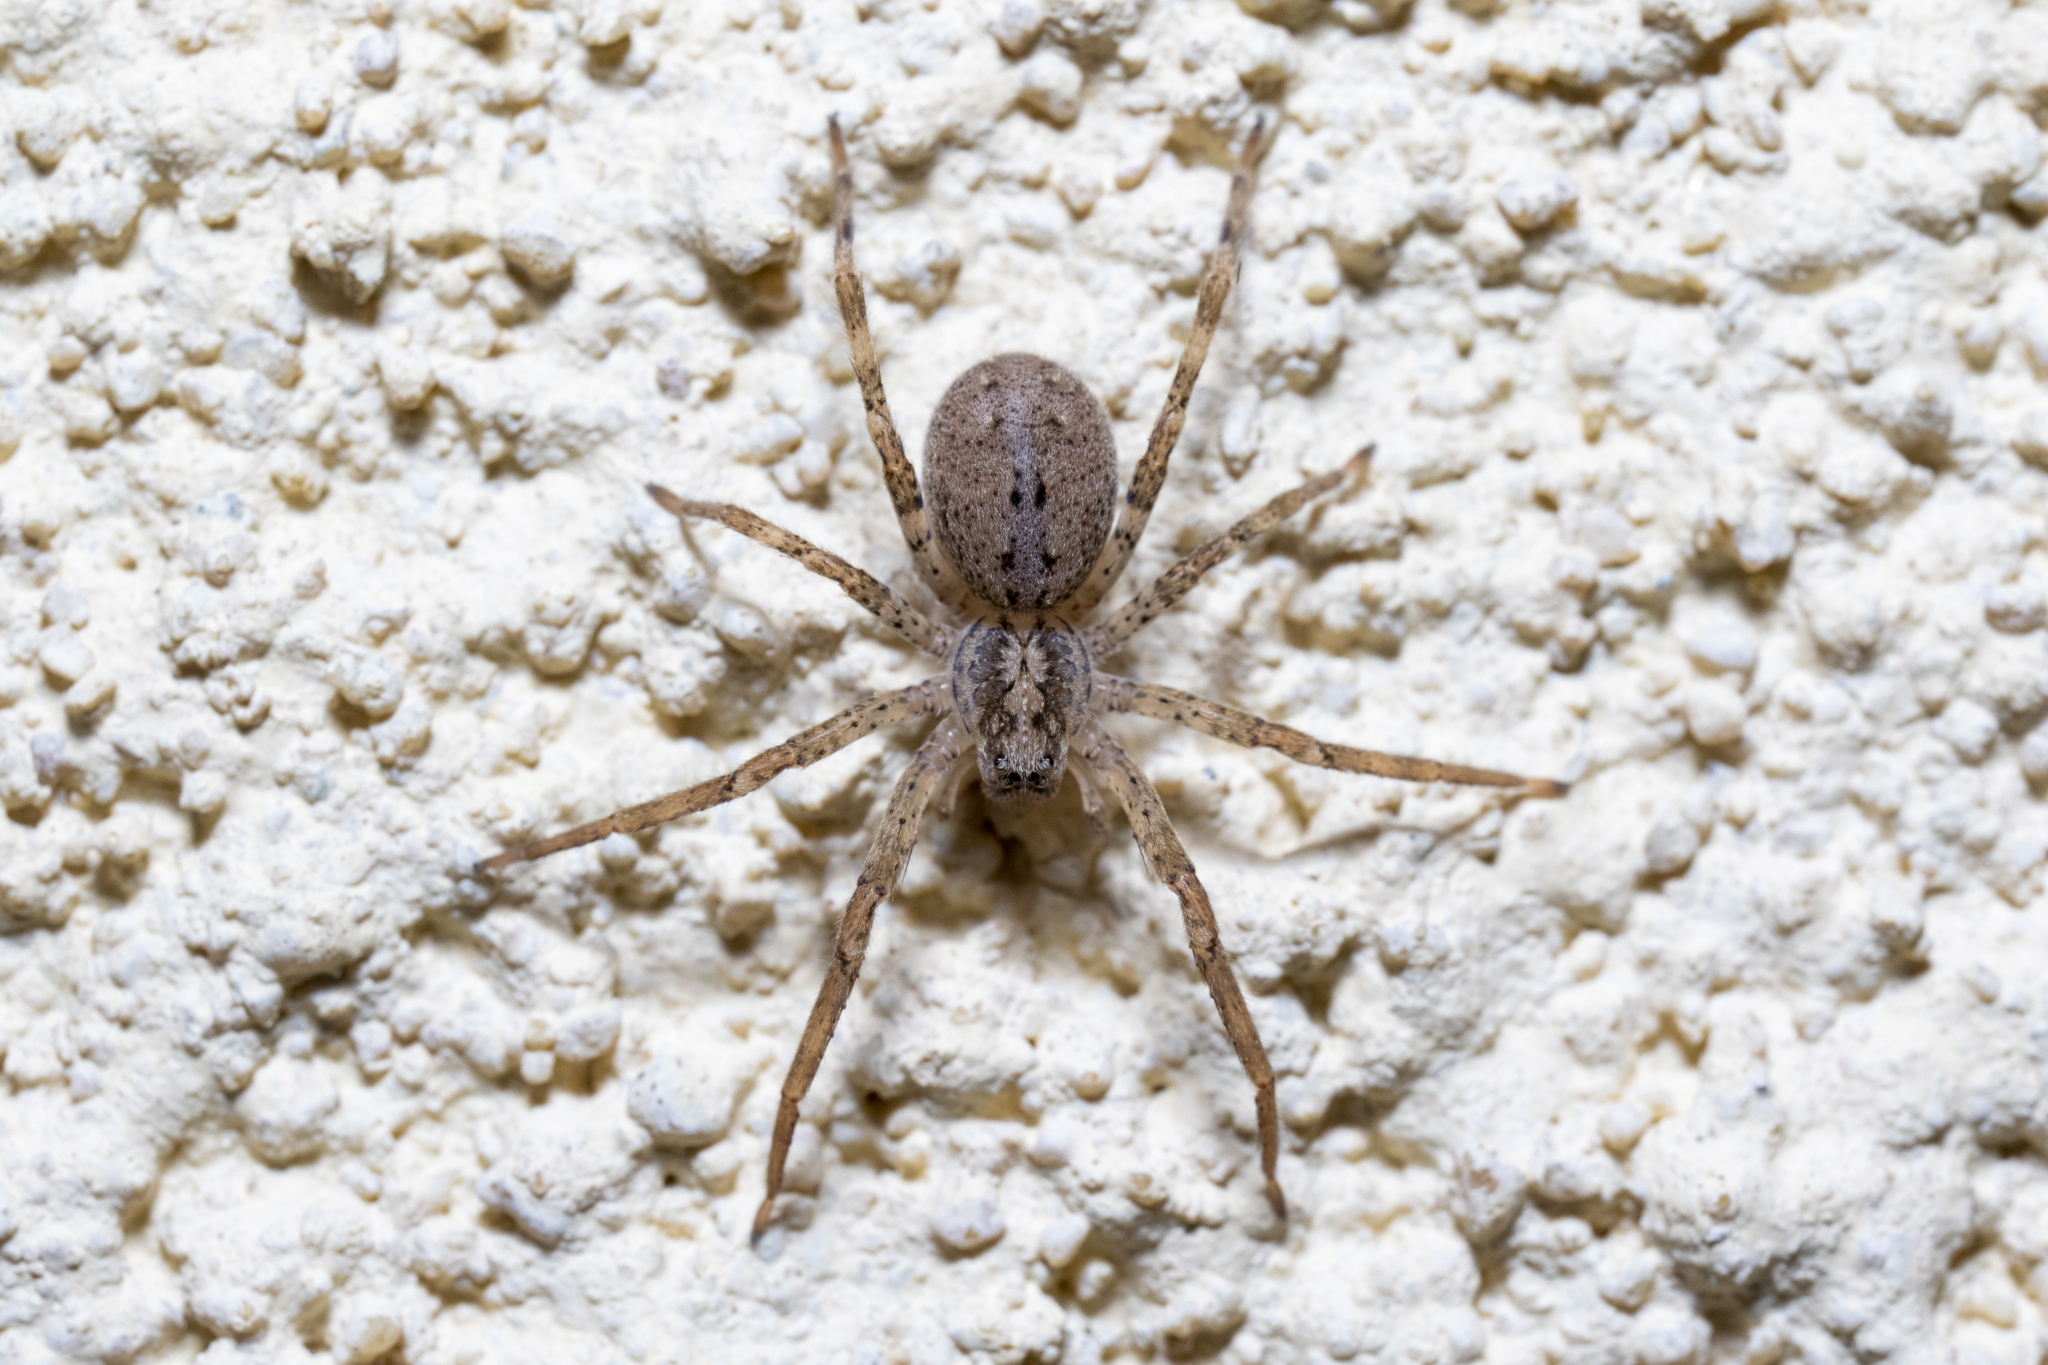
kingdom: Animalia
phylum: Arthropoda
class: Arachnida
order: Araneae
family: Zoropsidae
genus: Zoropsis
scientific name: Zoropsis spinimana
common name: Zoropsid spider
